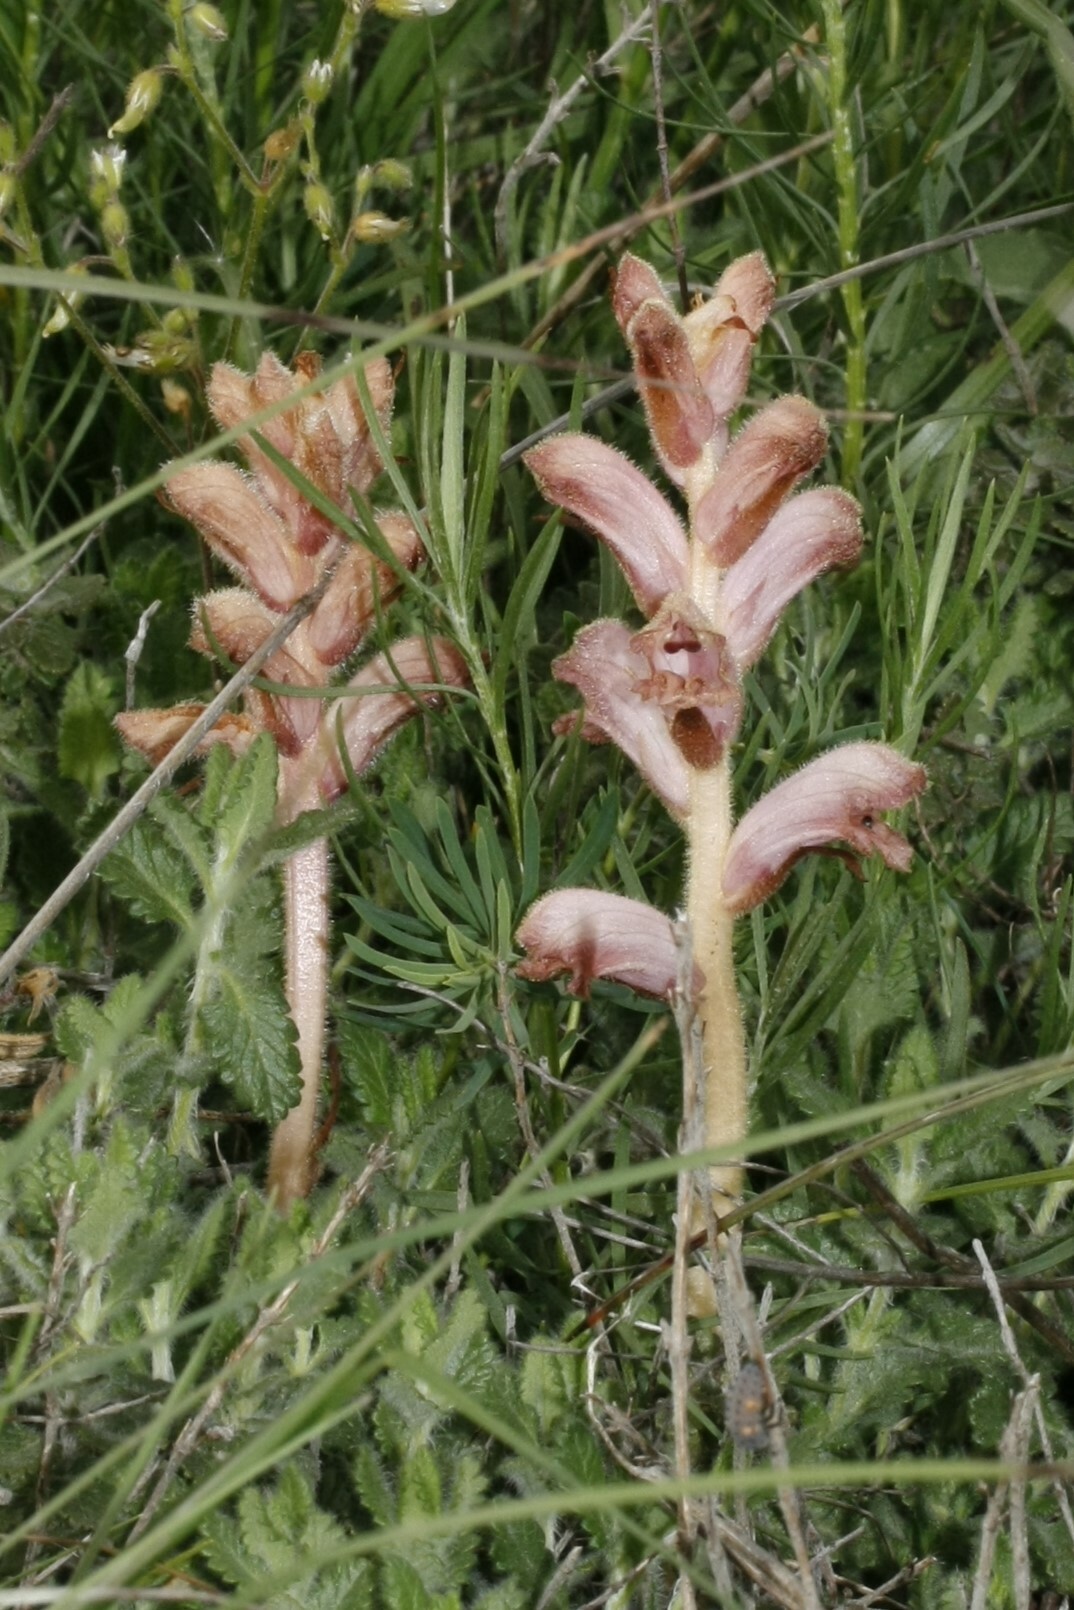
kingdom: Plantae
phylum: Tracheophyta
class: Magnoliopsida
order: Lamiales
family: Orobanchaceae
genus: Orobanche
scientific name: Orobanche teucrii
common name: Germander broomrape
